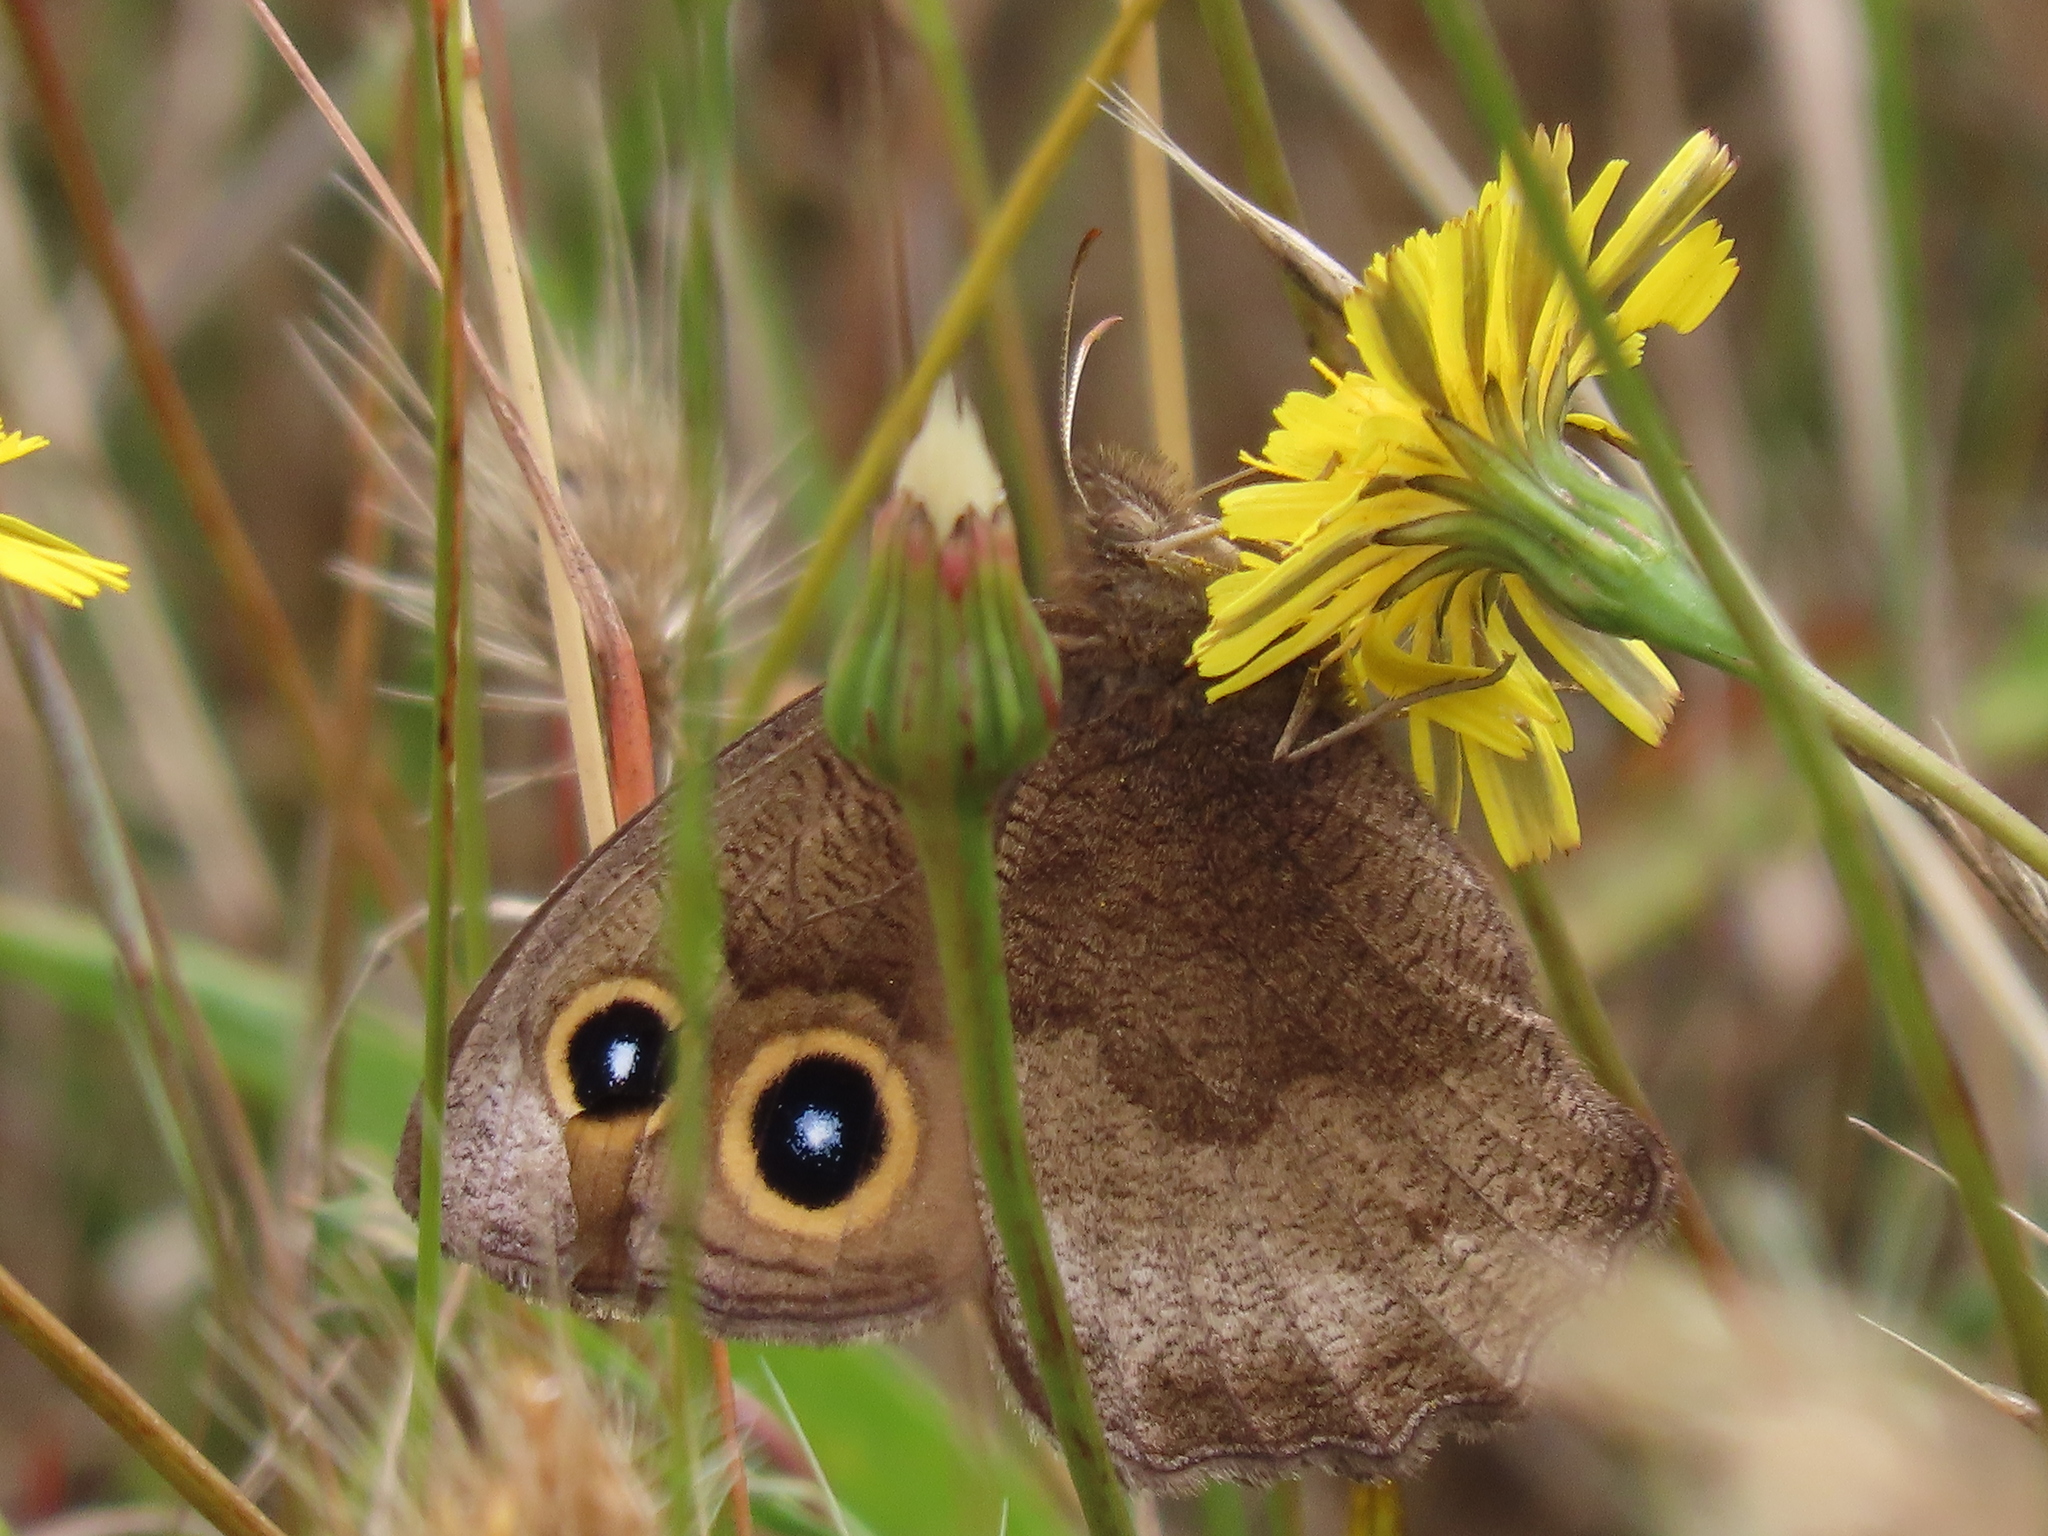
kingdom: Animalia
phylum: Arthropoda
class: Insecta
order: Lepidoptera
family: Nymphalidae
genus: Cercyonis
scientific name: Cercyonis pegala
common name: Common wood-nymph
